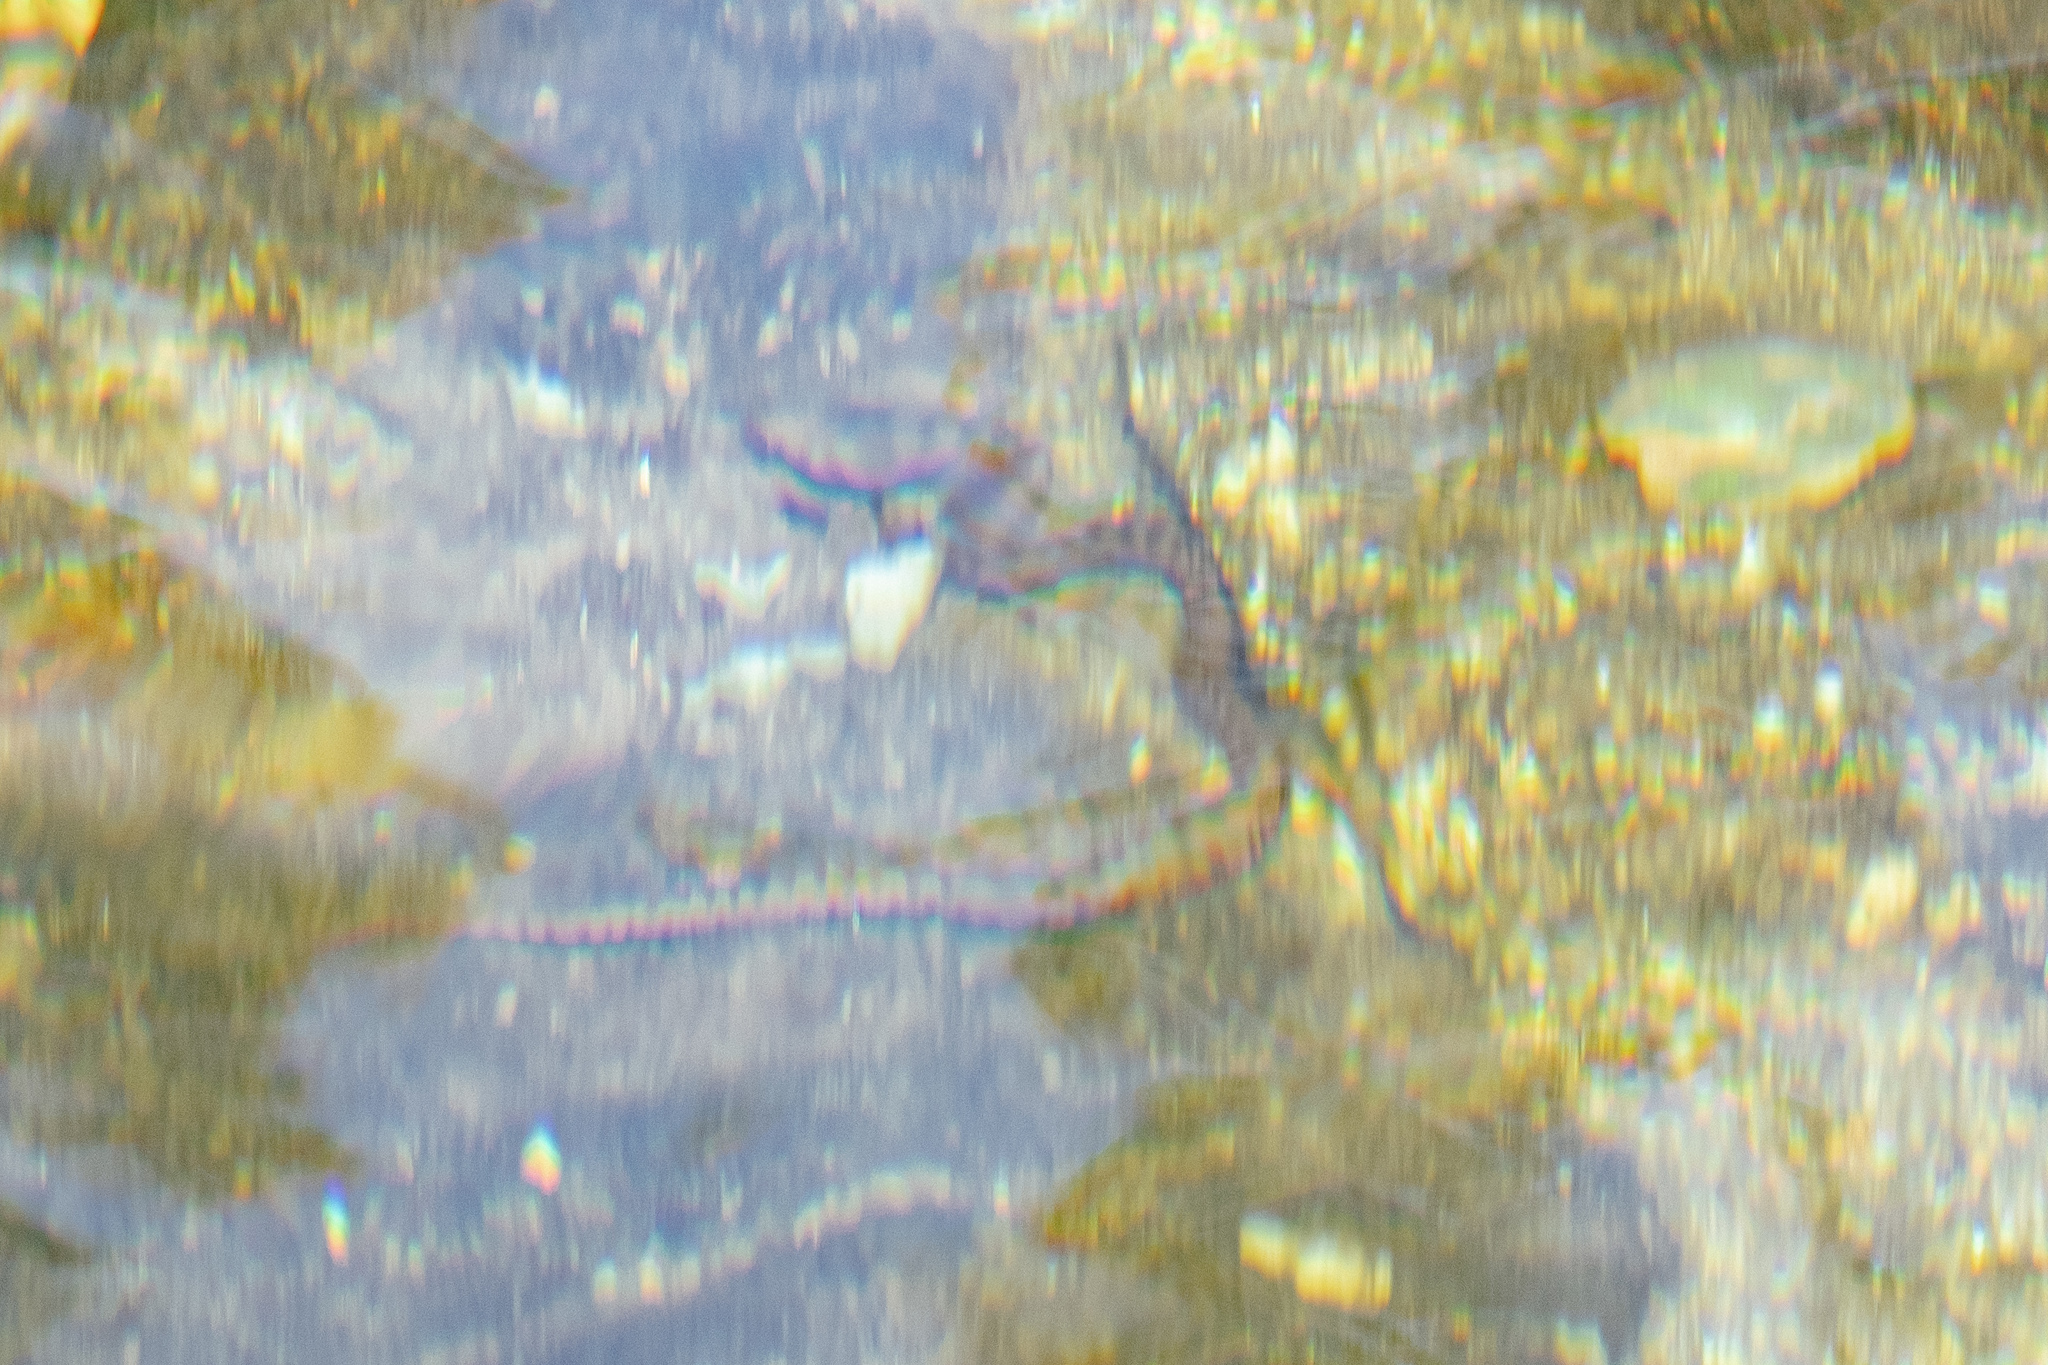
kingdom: Animalia
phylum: Chordata
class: Squamata
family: Colubridae
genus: Natrix
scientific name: Natrix maura
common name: Viperine water snake
